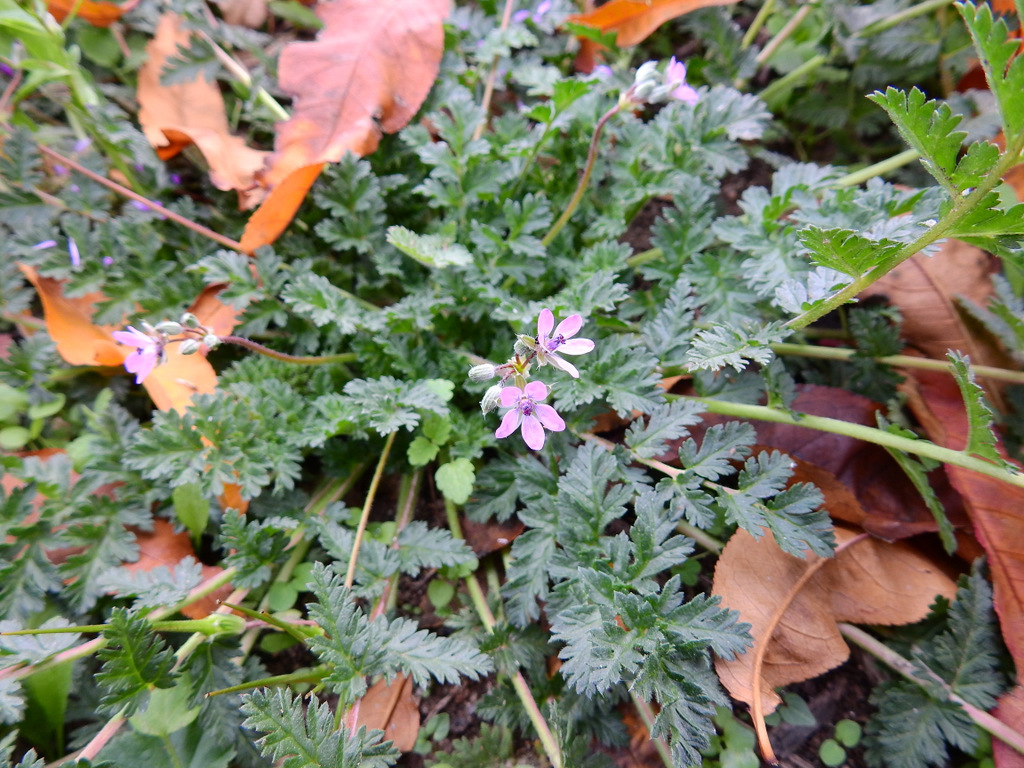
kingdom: Plantae
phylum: Tracheophyta
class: Magnoliopsida
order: Geraniales
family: Geraniaceae
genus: Erodium
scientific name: Erodium cicutarium
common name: Common stork's-bill
